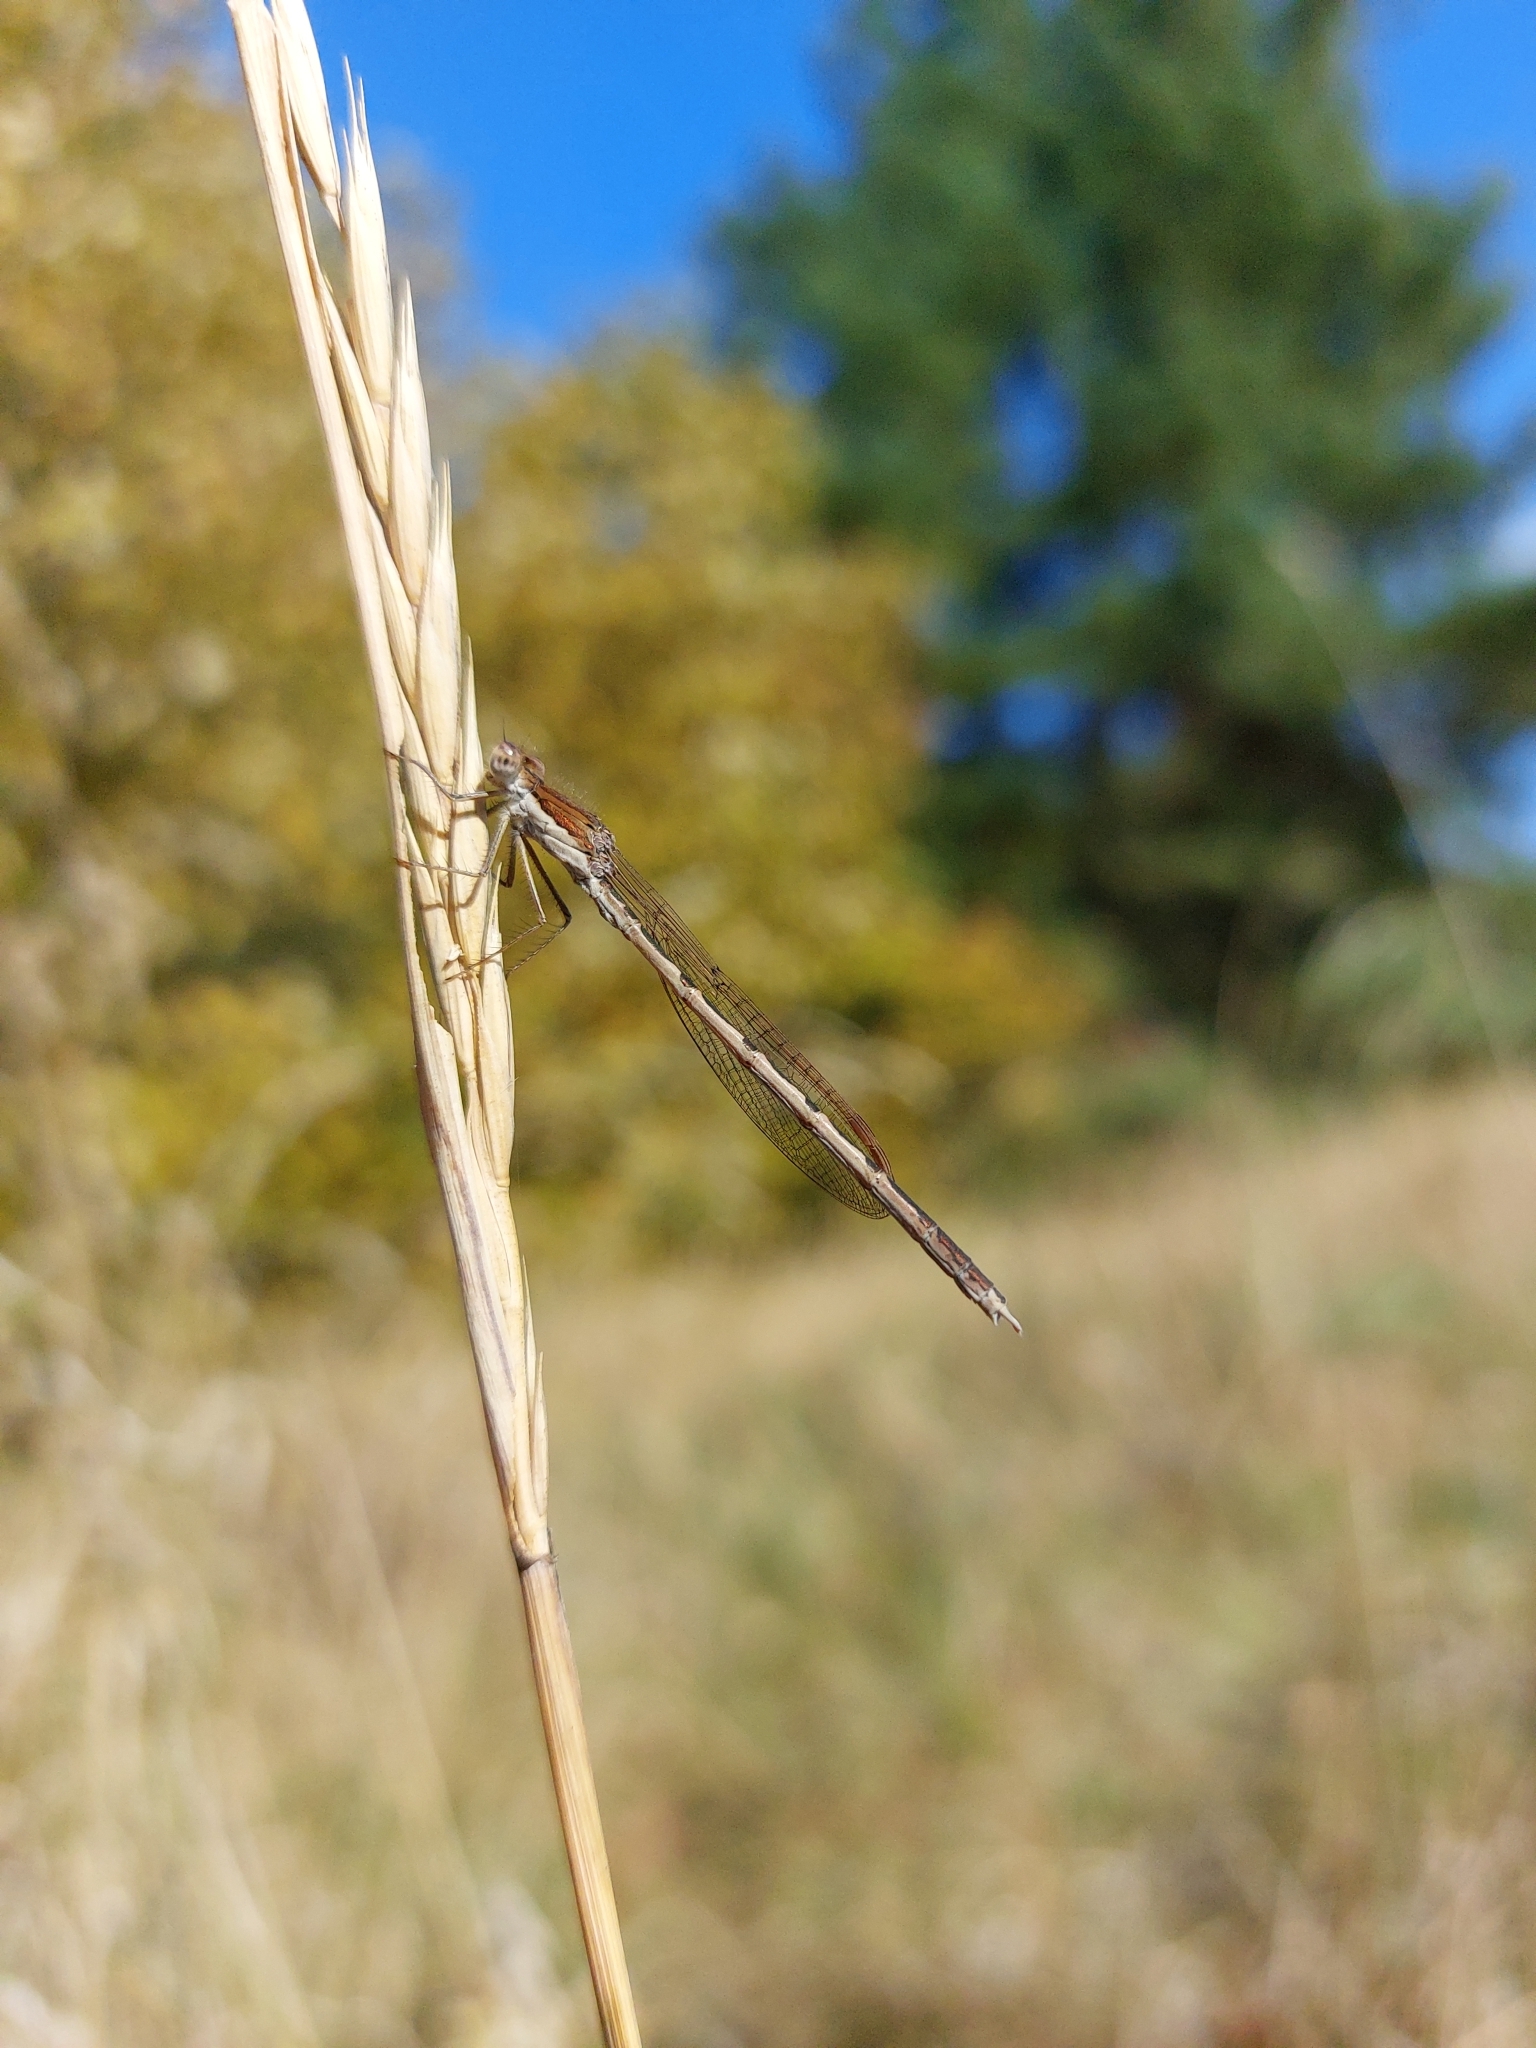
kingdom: Animalia
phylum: Arthropoda
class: Insecta
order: Odonata
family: Lestidae
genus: Sympecma
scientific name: Sympecma fusca
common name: Common winter damsel
